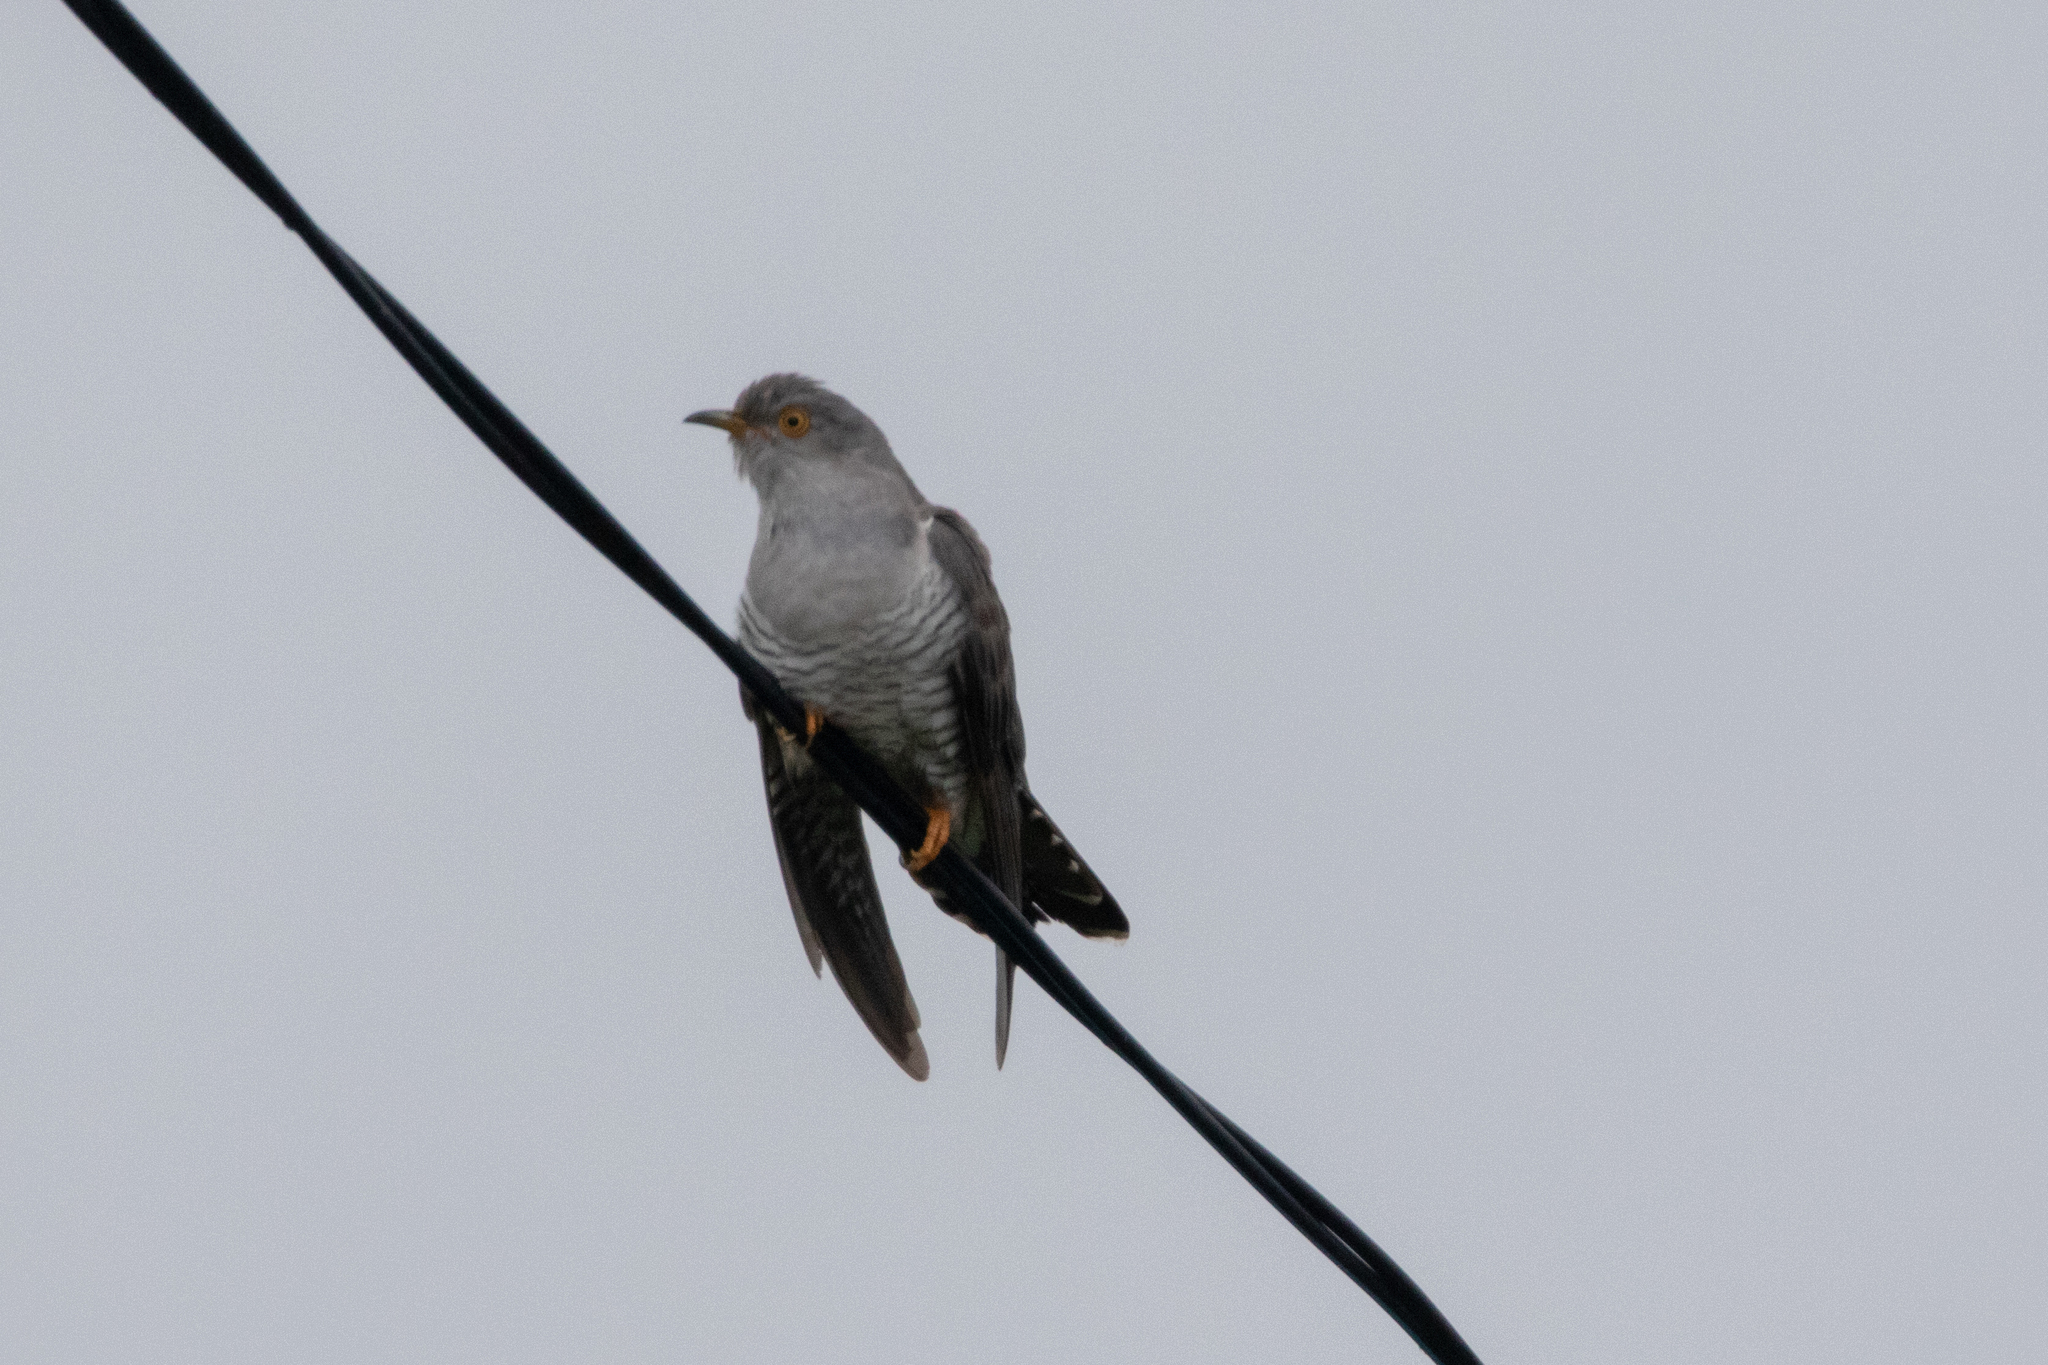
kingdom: Animalia
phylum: Chordata
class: Aves
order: Cuculiformes
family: Cuculidae
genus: Cuculus
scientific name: Cuculus canorus
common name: Common cuckoo
